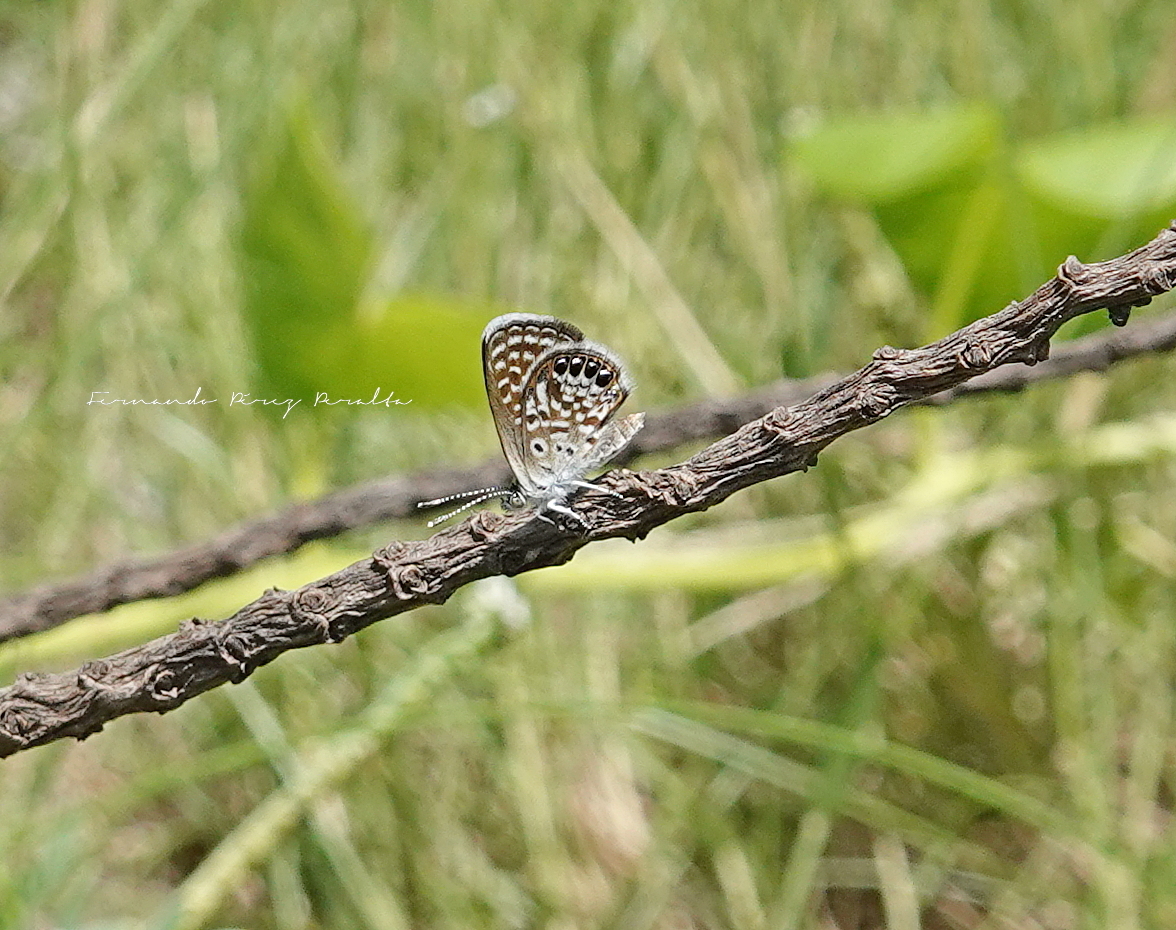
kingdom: Animalia
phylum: Arthropoda
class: Insecta
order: Lepidoptera
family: Lycaenidae
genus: Brephidium
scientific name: Brephidium exilis
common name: Pygmy blue
